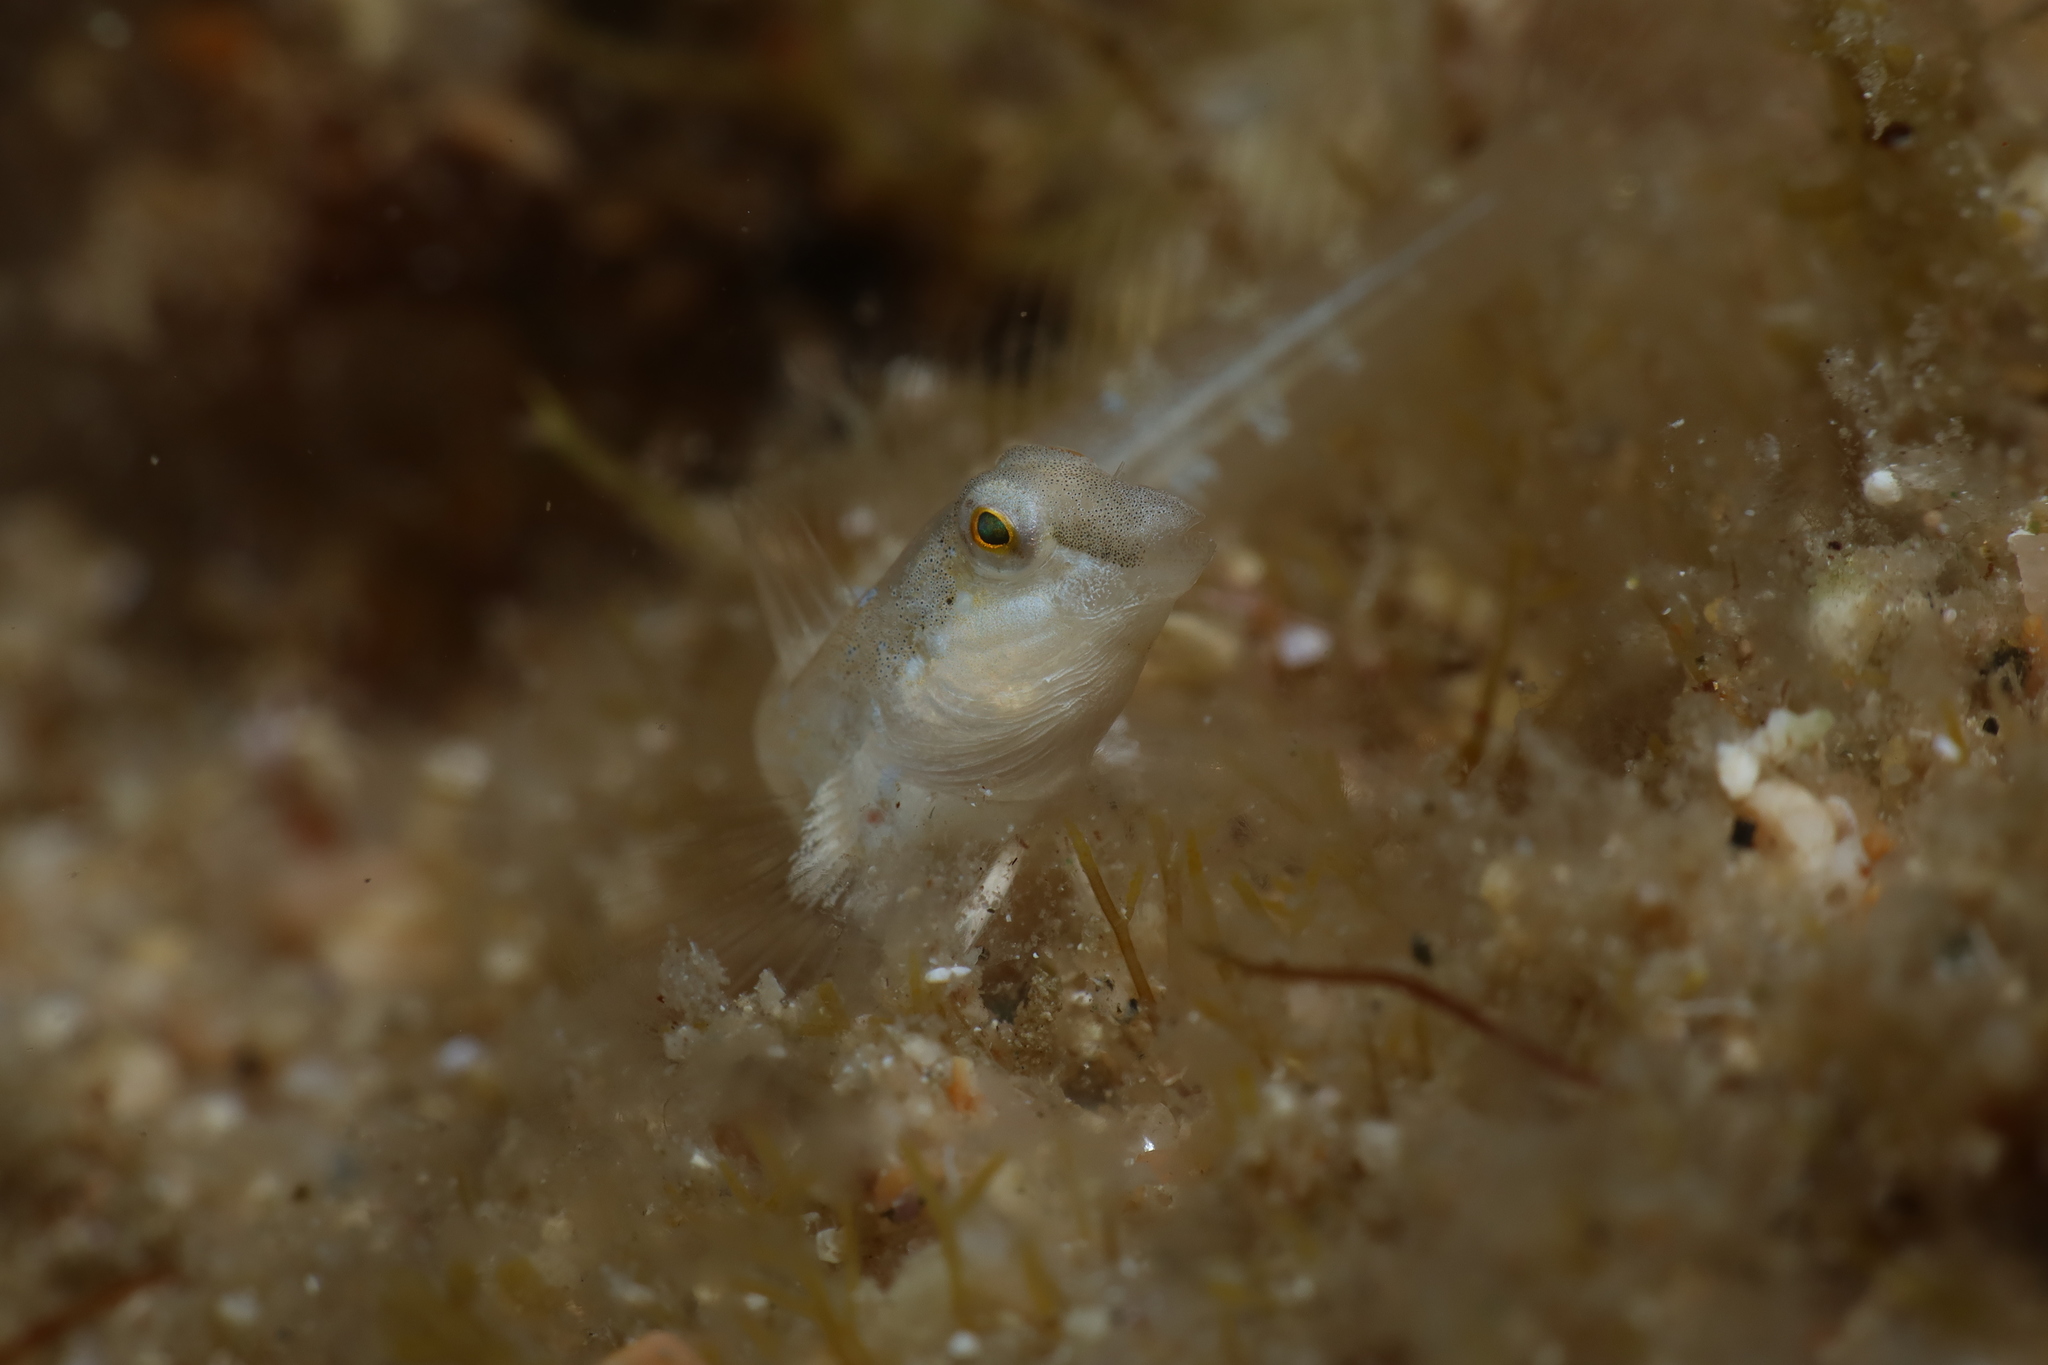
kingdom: Animalia
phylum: Chordata
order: Perciformes
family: Blenniidae
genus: Microlipophrys
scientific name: Microlipophrys dalmatinus
